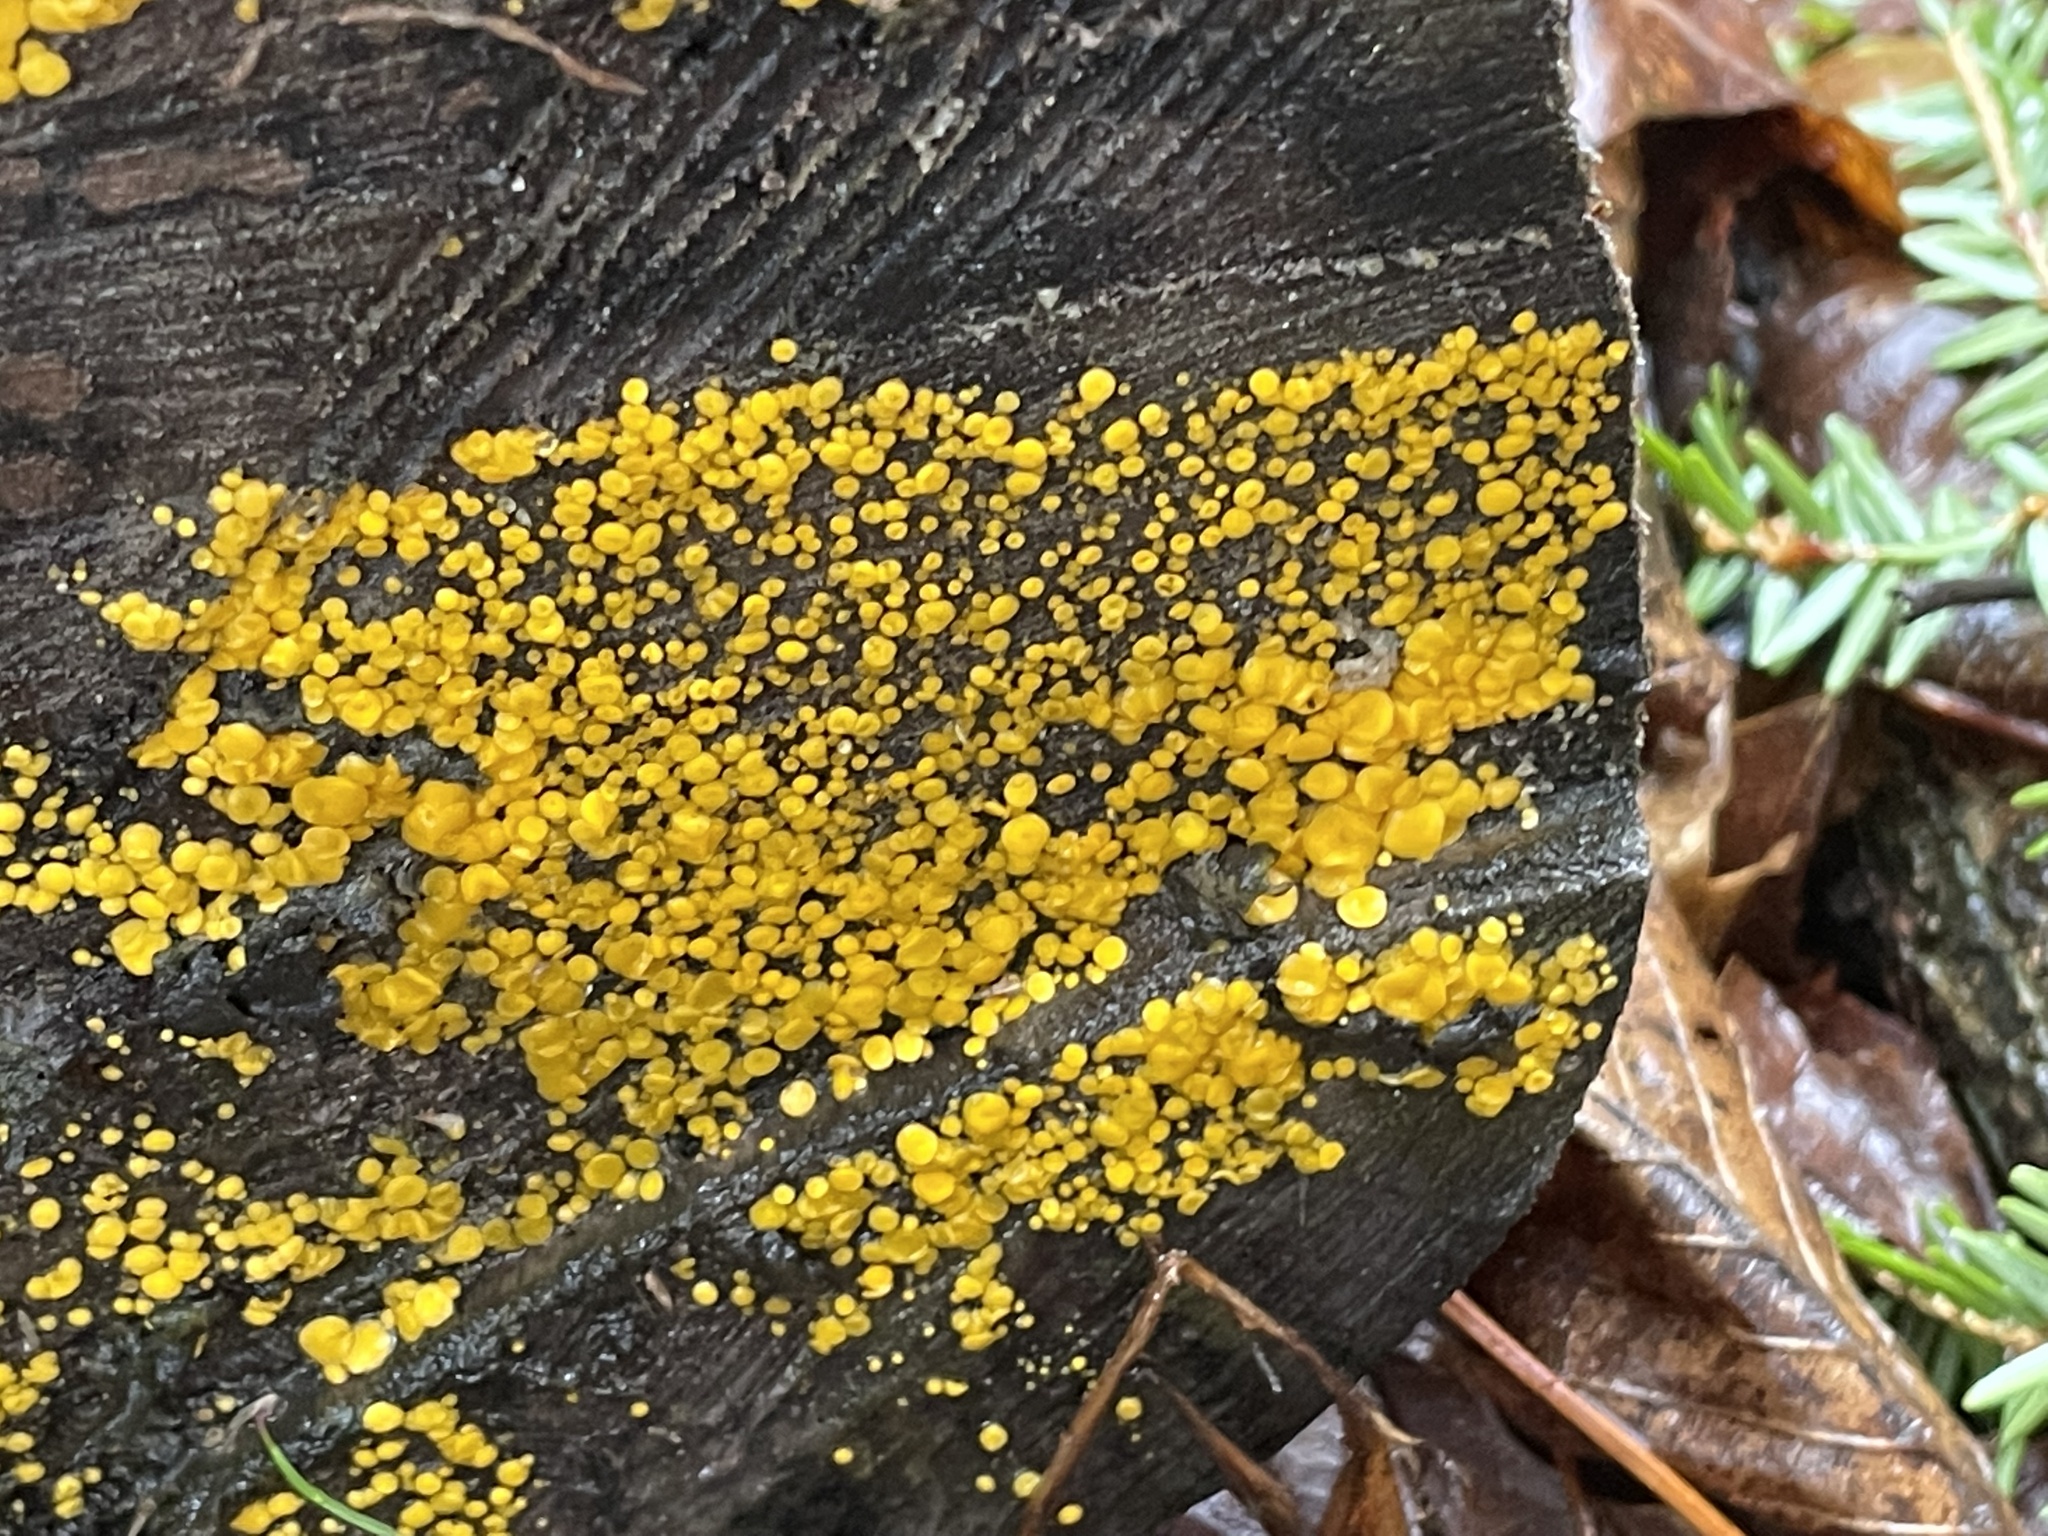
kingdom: Fungi
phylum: Ascomycota
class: Leotiomycetes
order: Helotiales
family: Pezizellaceae
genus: Calycina
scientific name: Calycina citrina
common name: Yellow fairy cups
